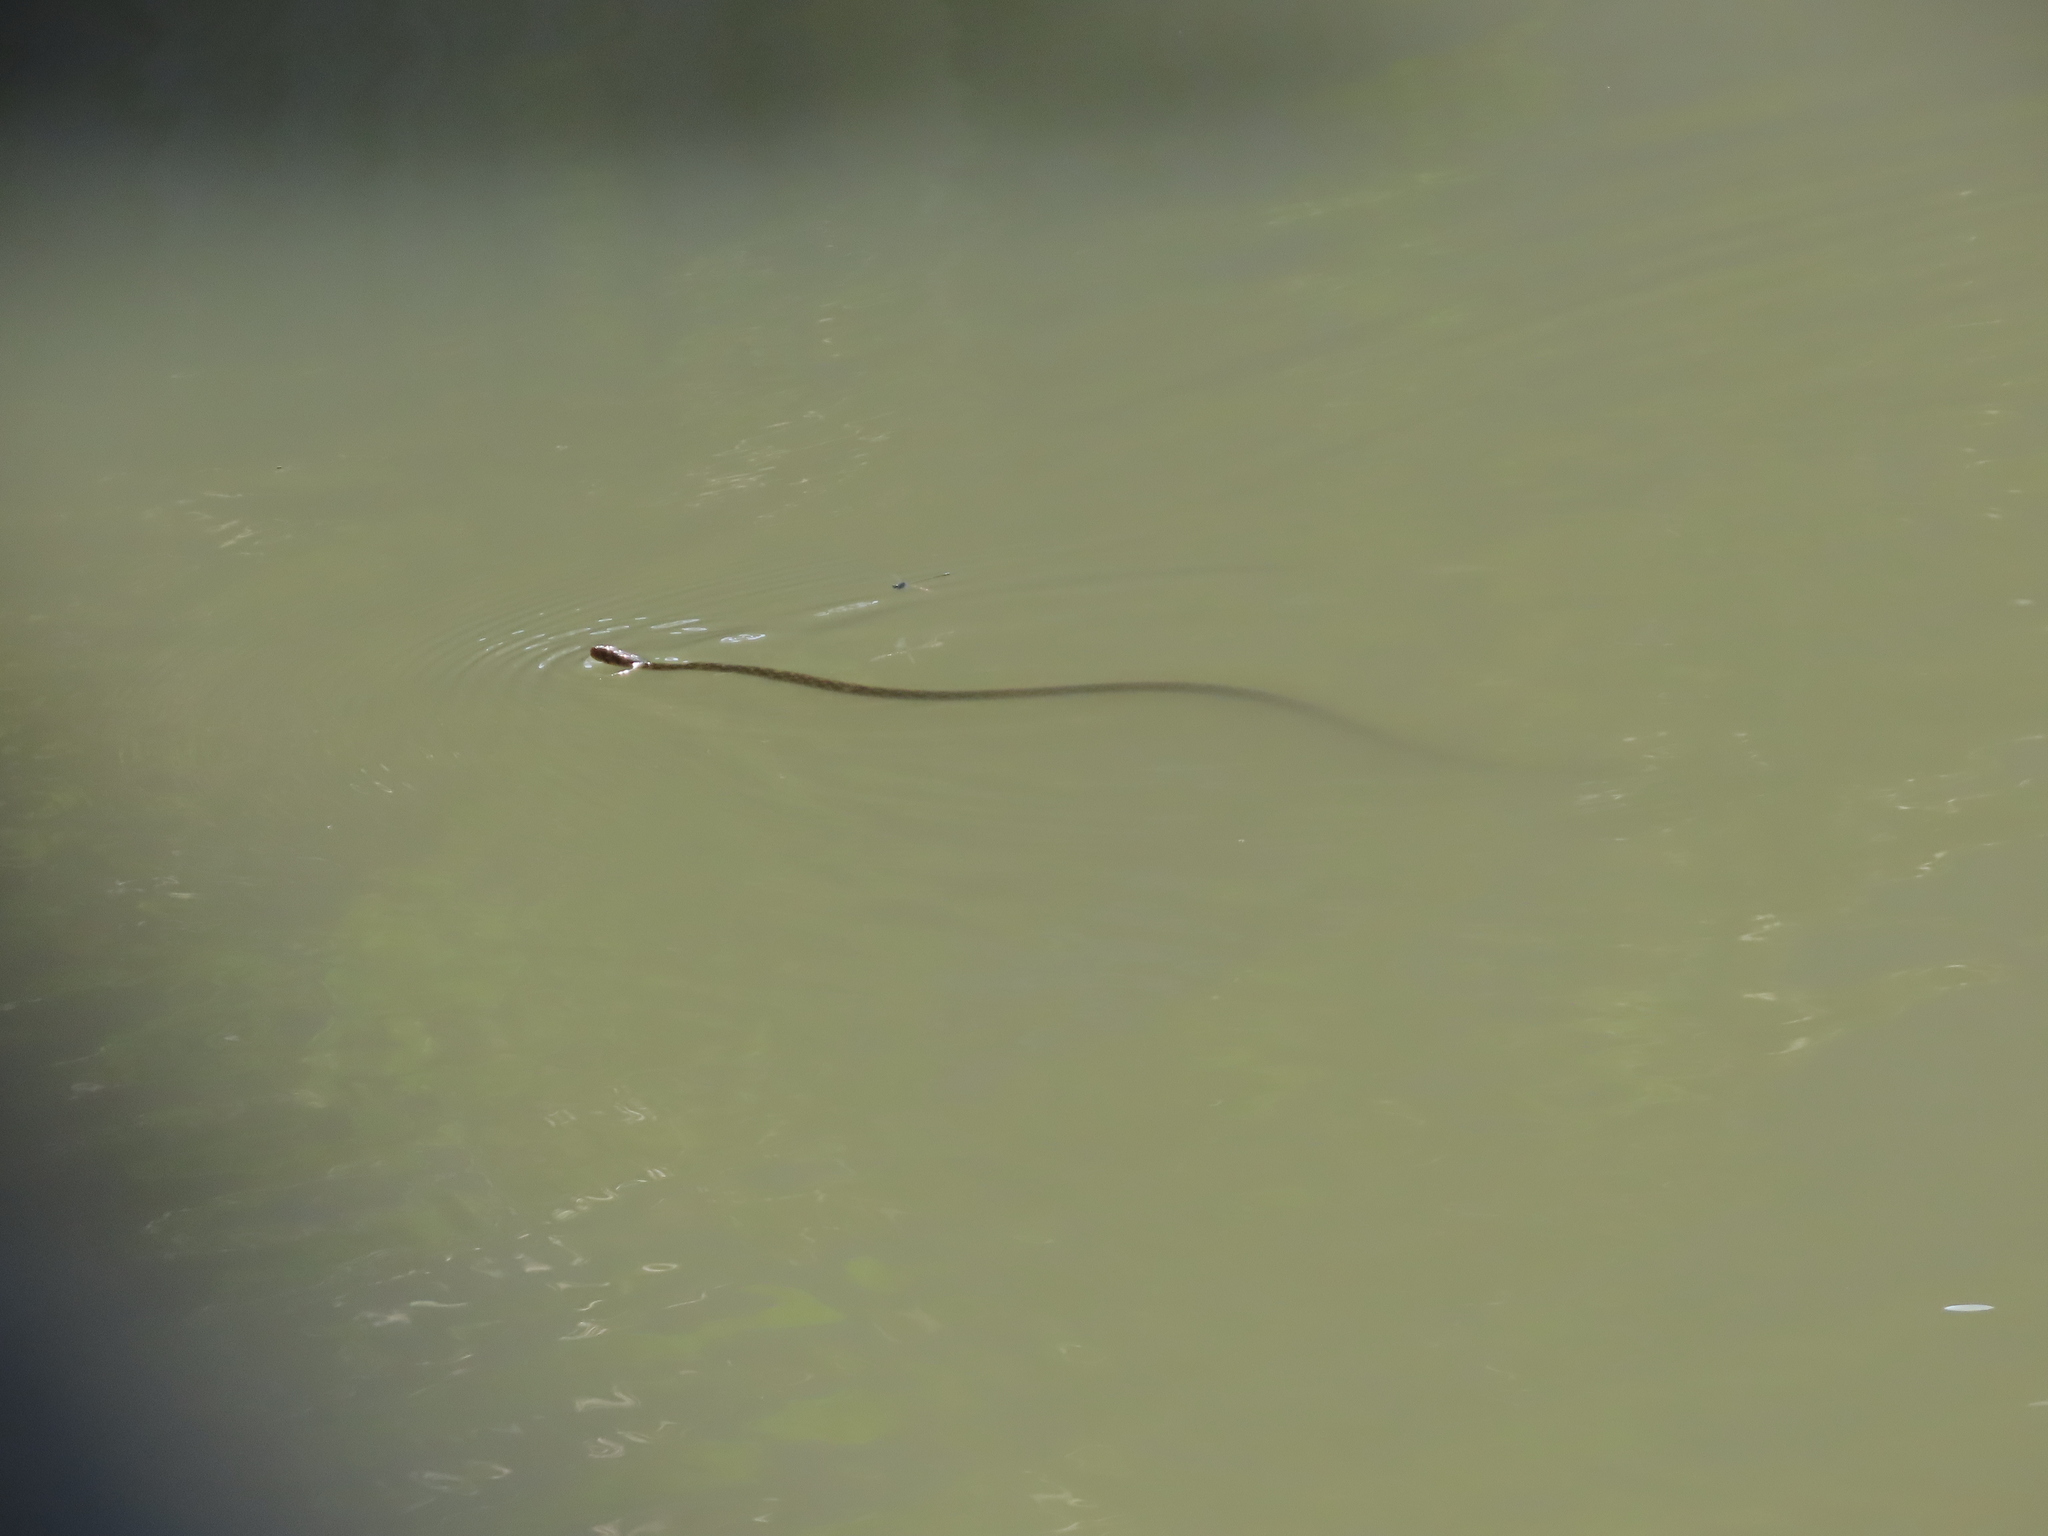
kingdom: Animalia
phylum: Chordata
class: Squamata
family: Colubridae
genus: Fowlea
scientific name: Fowlea piscator
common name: Asiatic water snake
